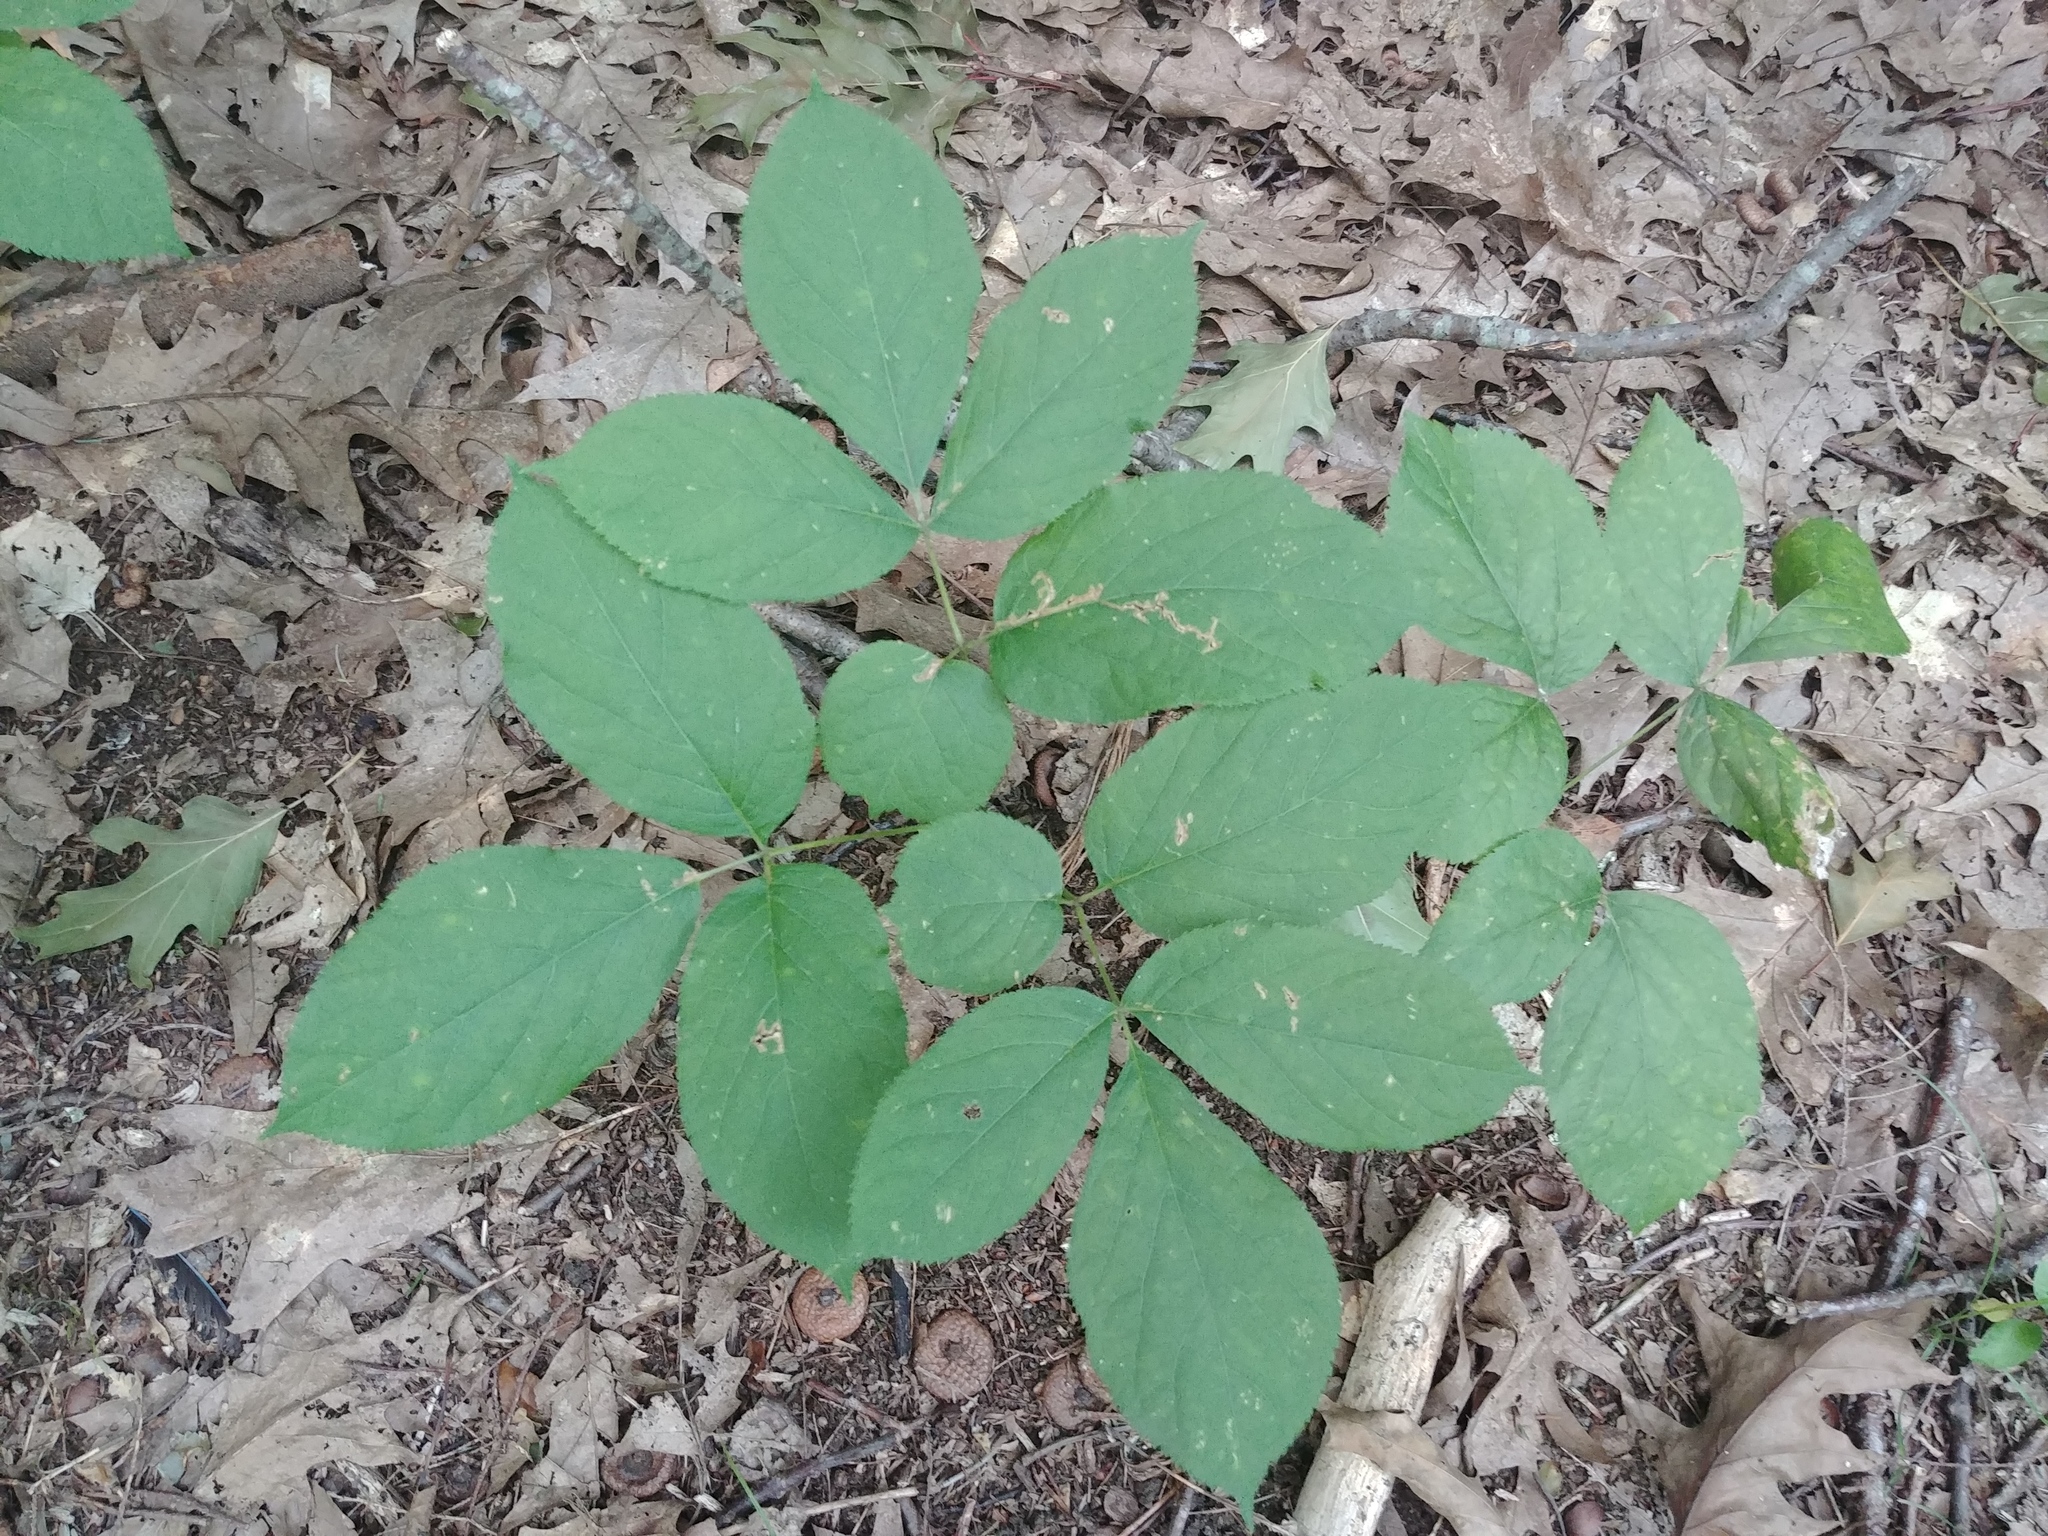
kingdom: Plantae
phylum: Tracheophyta
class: Magnoliopsida
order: Apiales
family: Araliaceae
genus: Aralia
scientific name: Aralia nudicaulis
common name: Wild sarsaparilla
